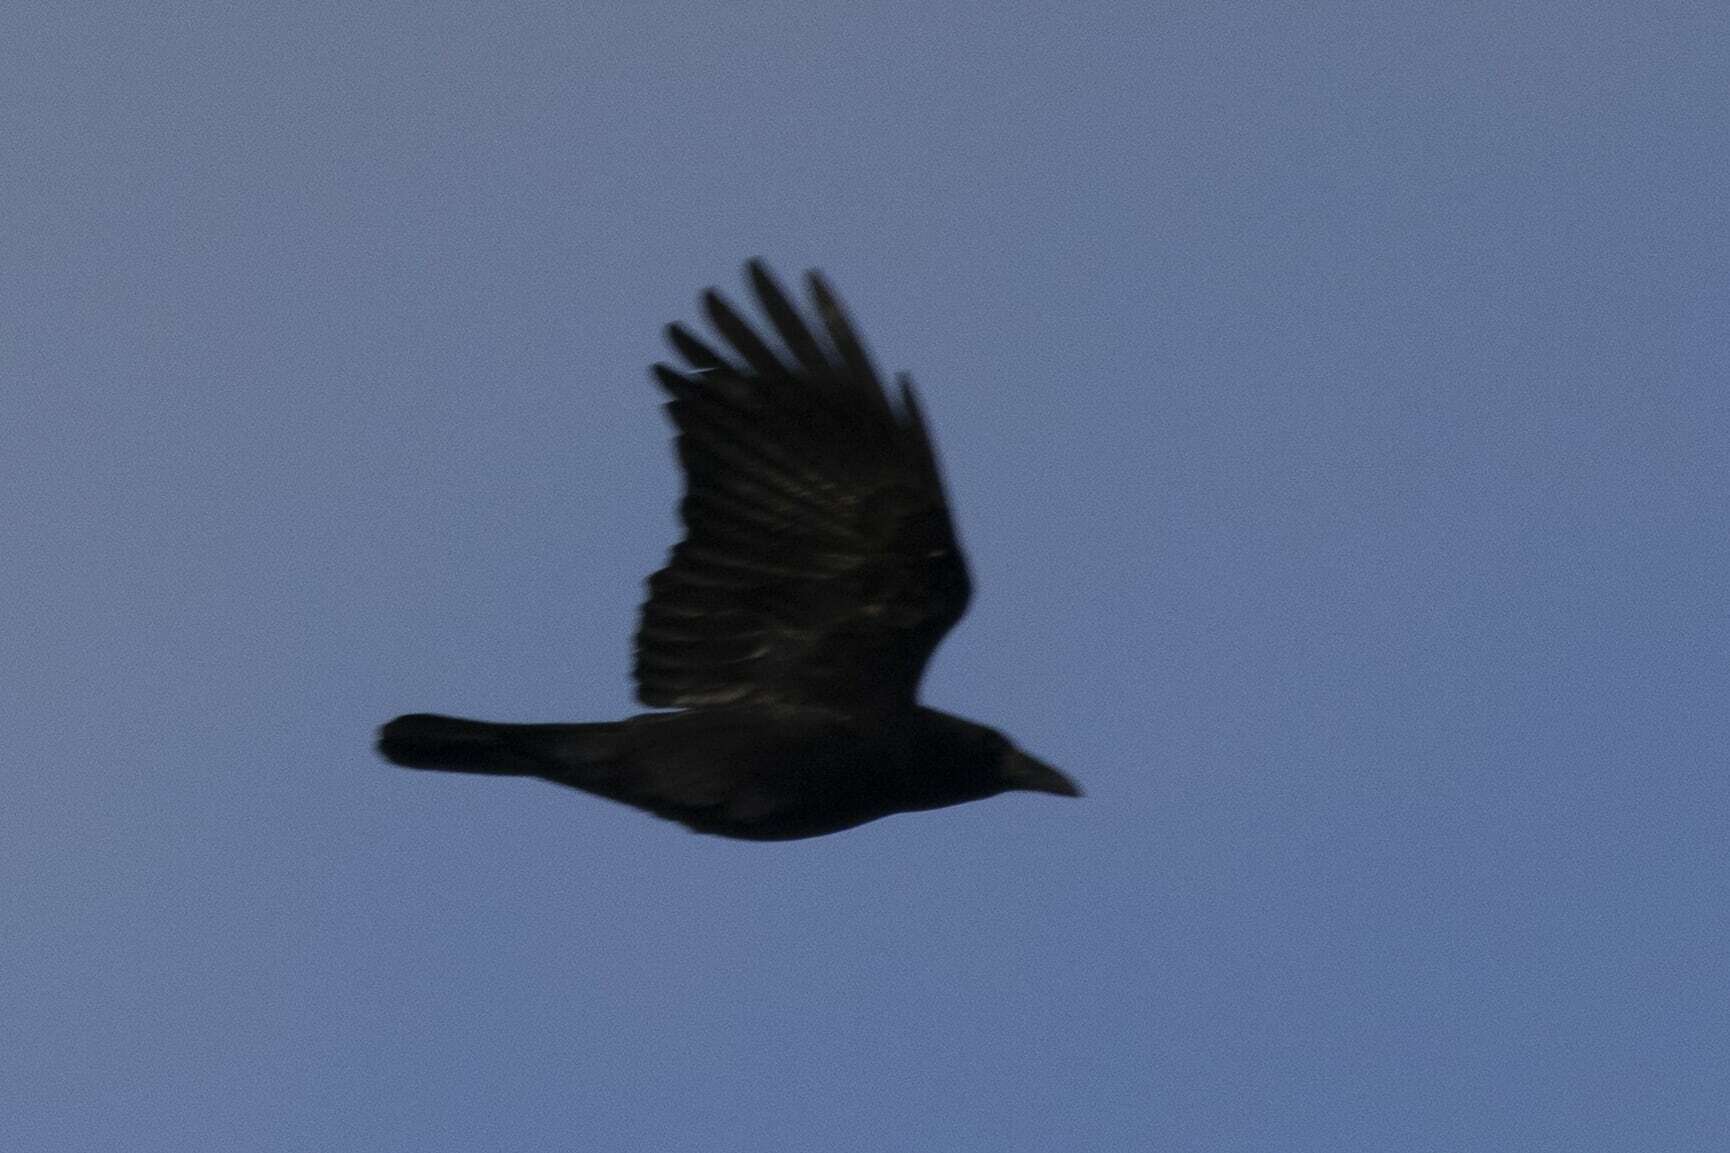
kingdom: Animalia
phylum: Chordata
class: Aves
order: Passeriformes
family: Corvidae
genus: Corvus
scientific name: Corvus corone
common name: Carrion crow
